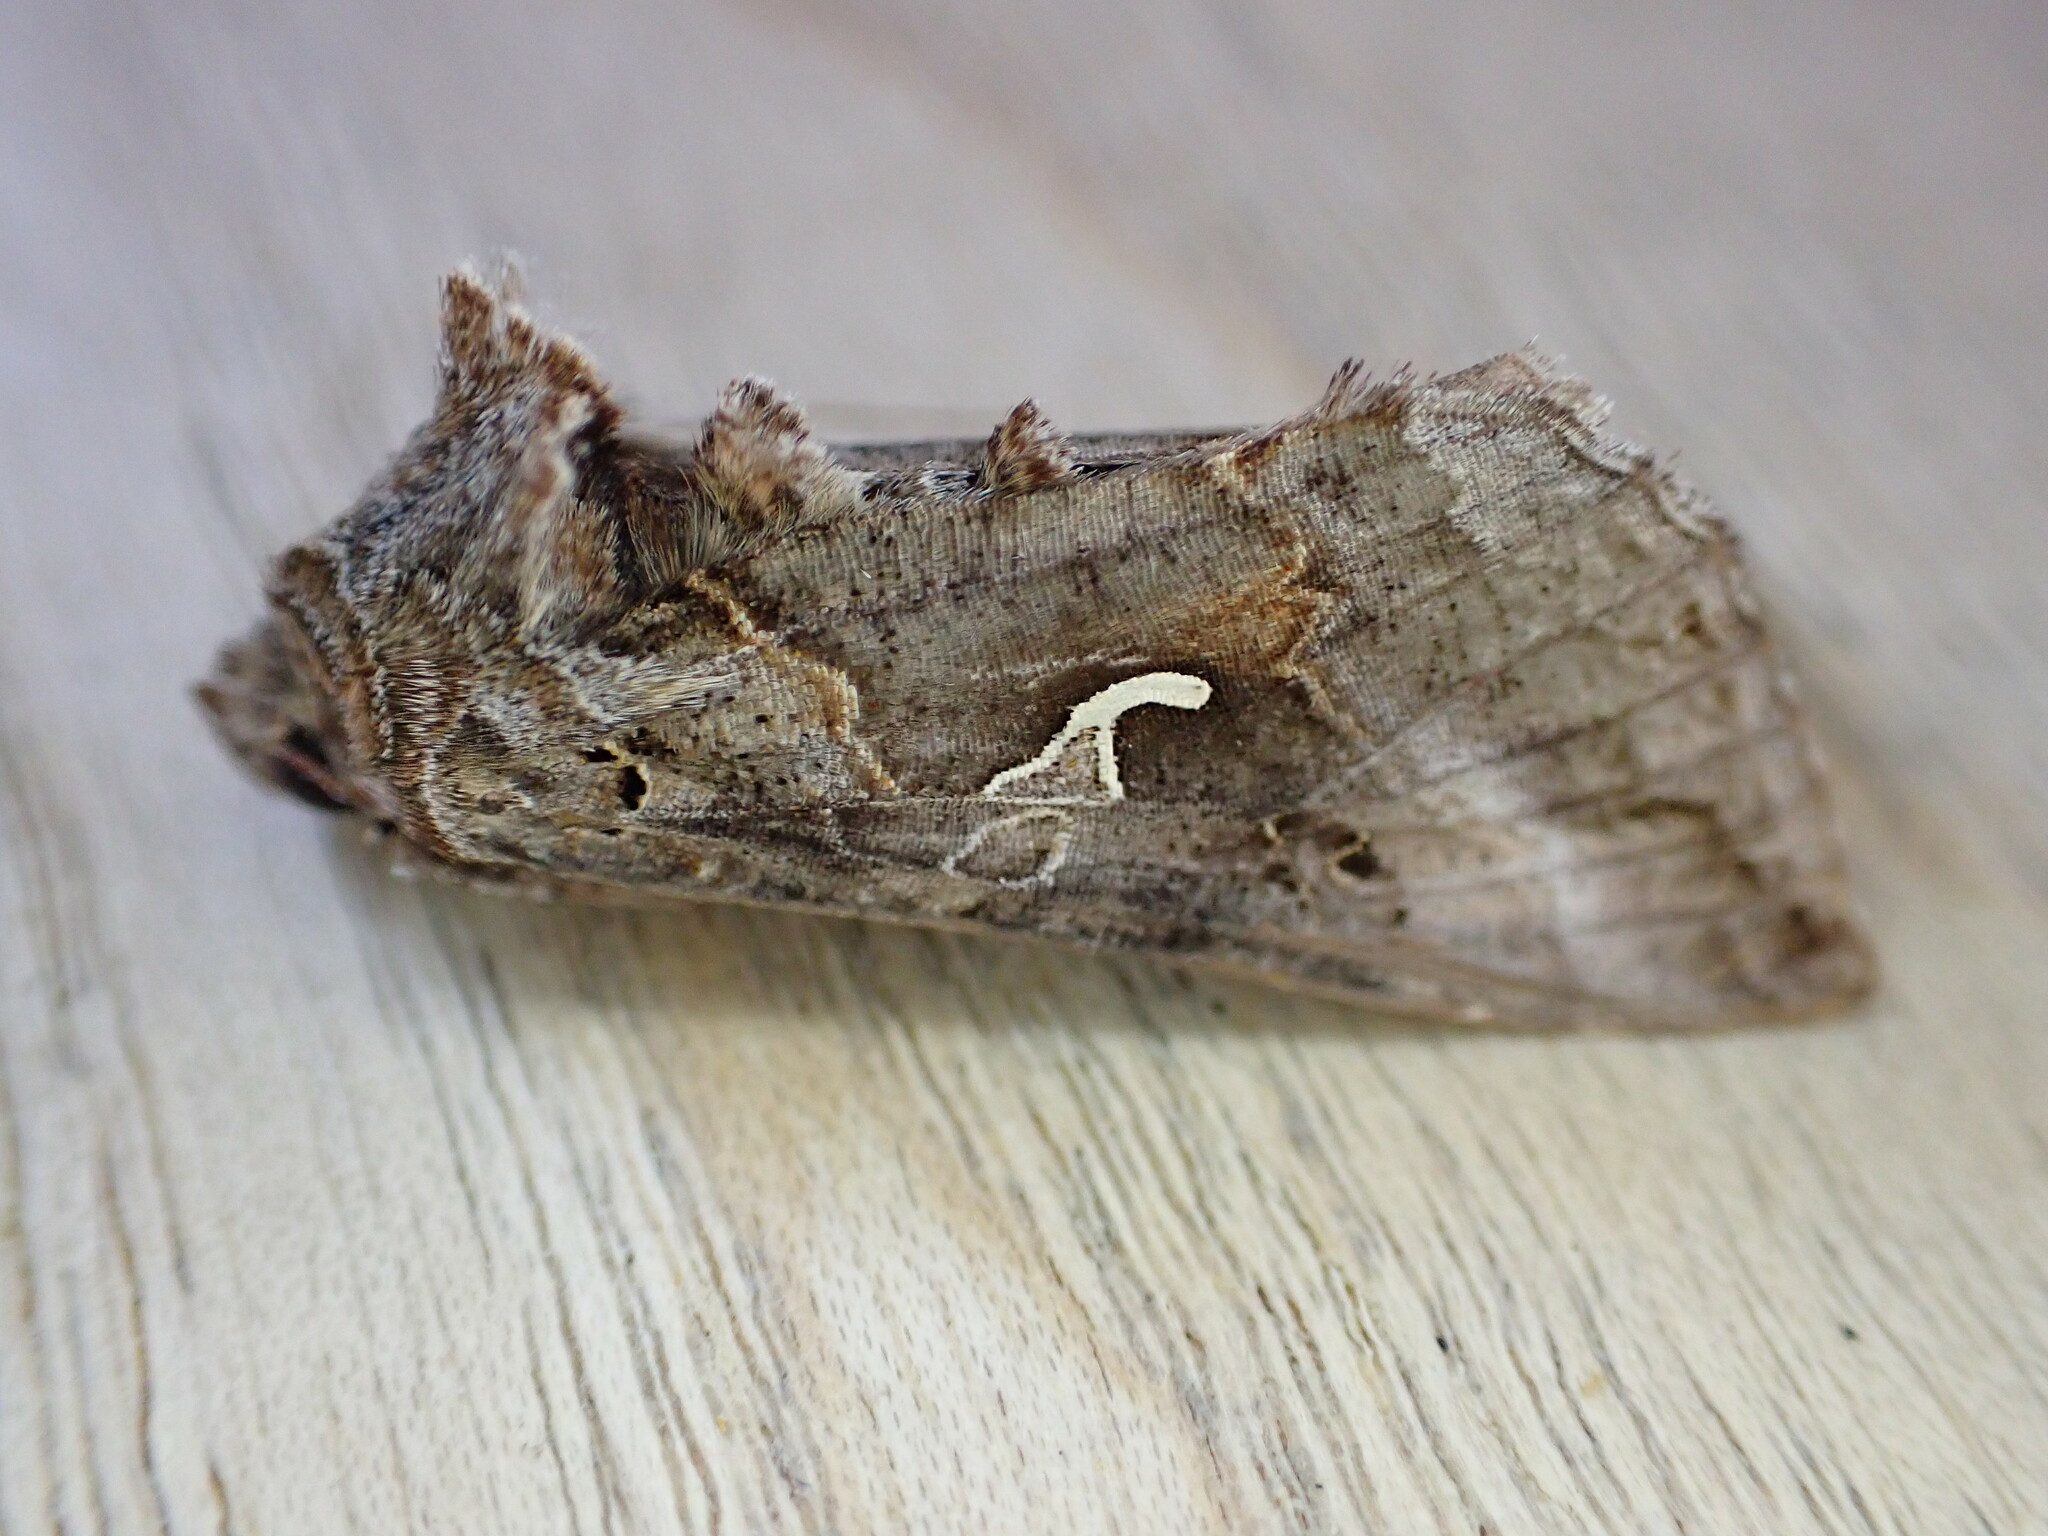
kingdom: Animalia
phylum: Arthropoda
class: Insecta
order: Lepidoptera
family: Noctuidae
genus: Autographa
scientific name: Autographa gamma
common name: Silver y
